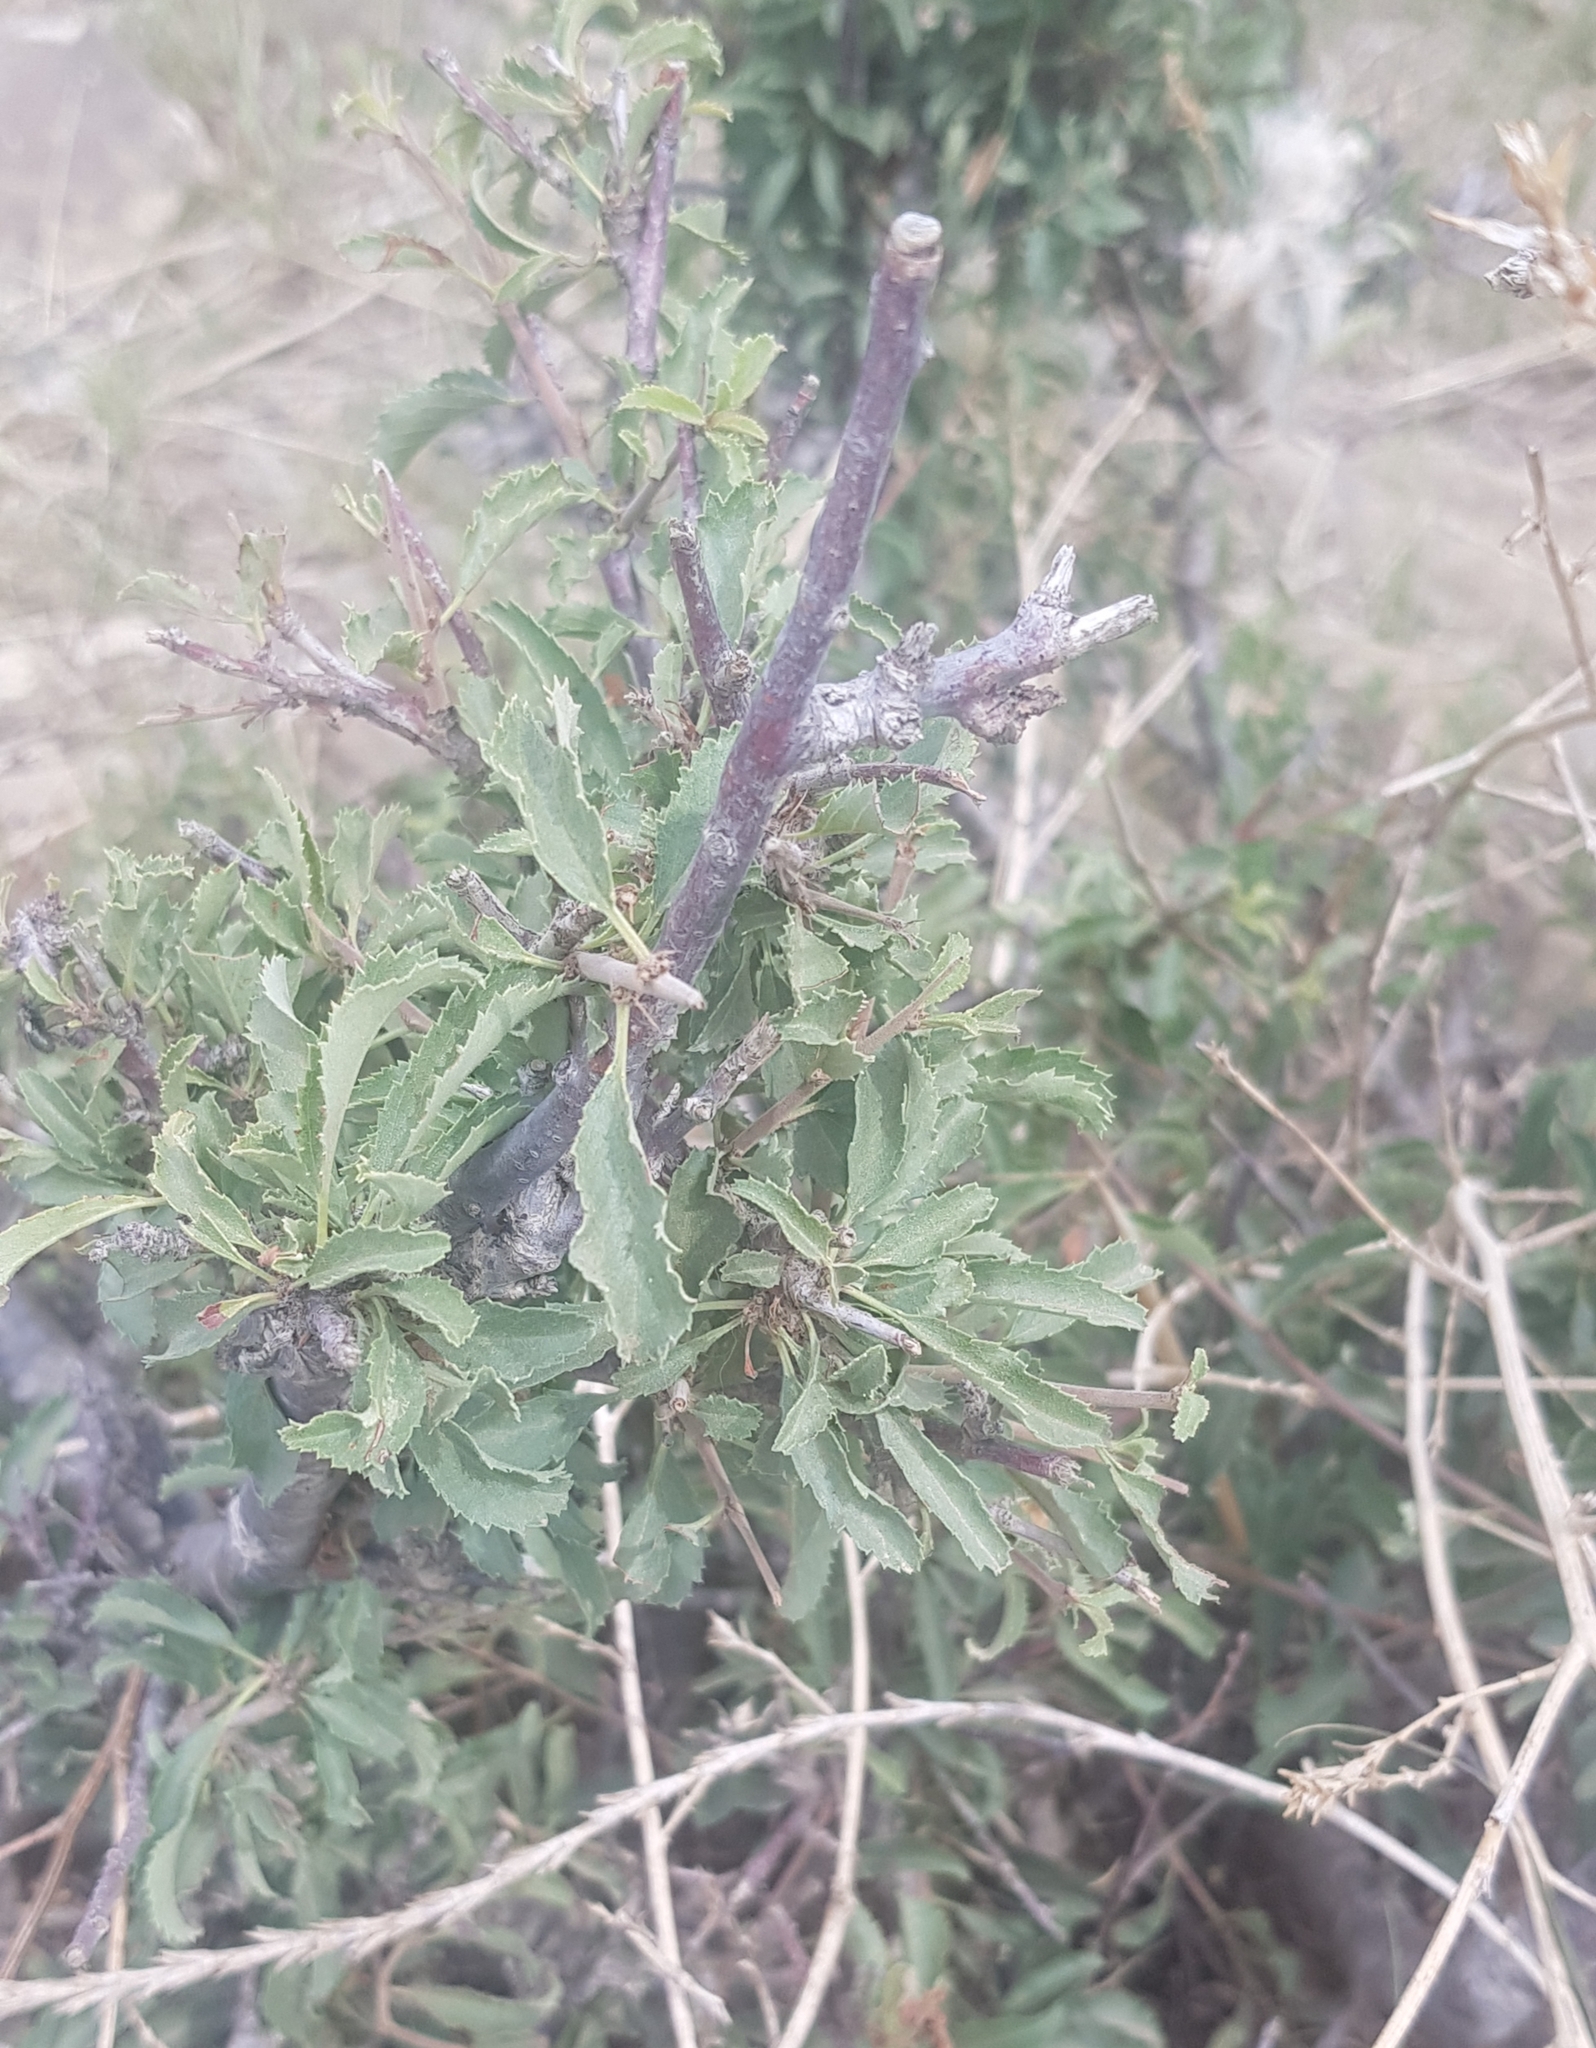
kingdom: Plantae
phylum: Tracheophyta
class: Magnoliopsida
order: Rosales
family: Rosaceae
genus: Prunus
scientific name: Prunus pedunculata
